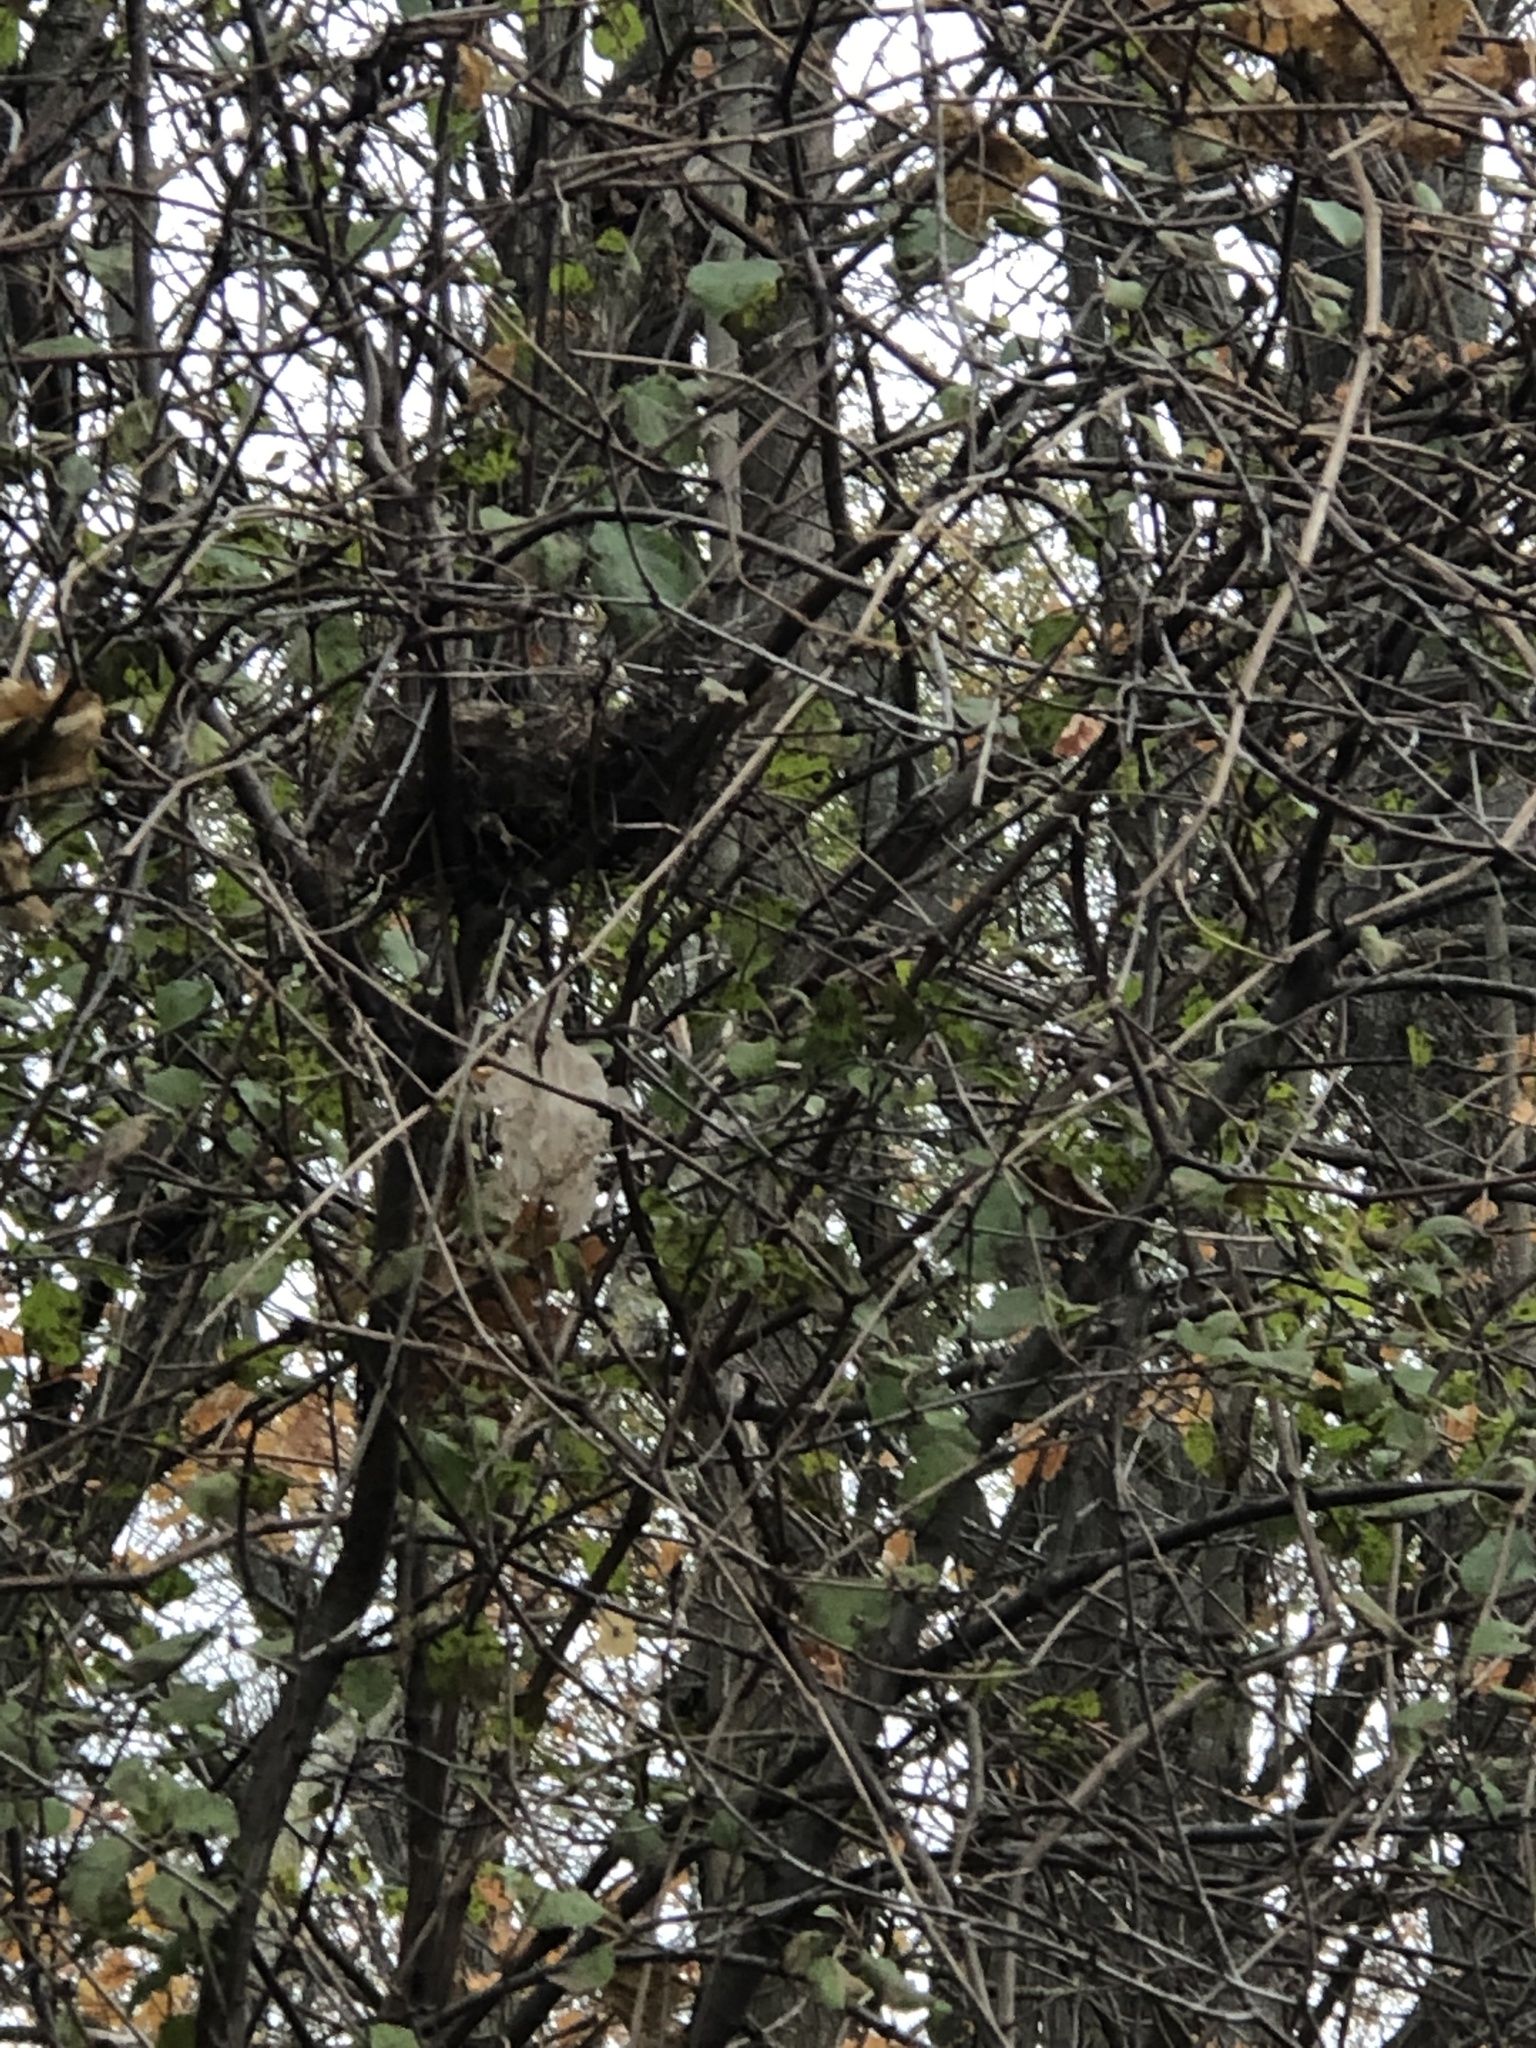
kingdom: Fungi
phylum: Ascomycota
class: Dothideomycetes
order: Venturiales
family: Venturiaceae
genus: Apiosporina
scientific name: Apiosporina morbosa
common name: Black knot
